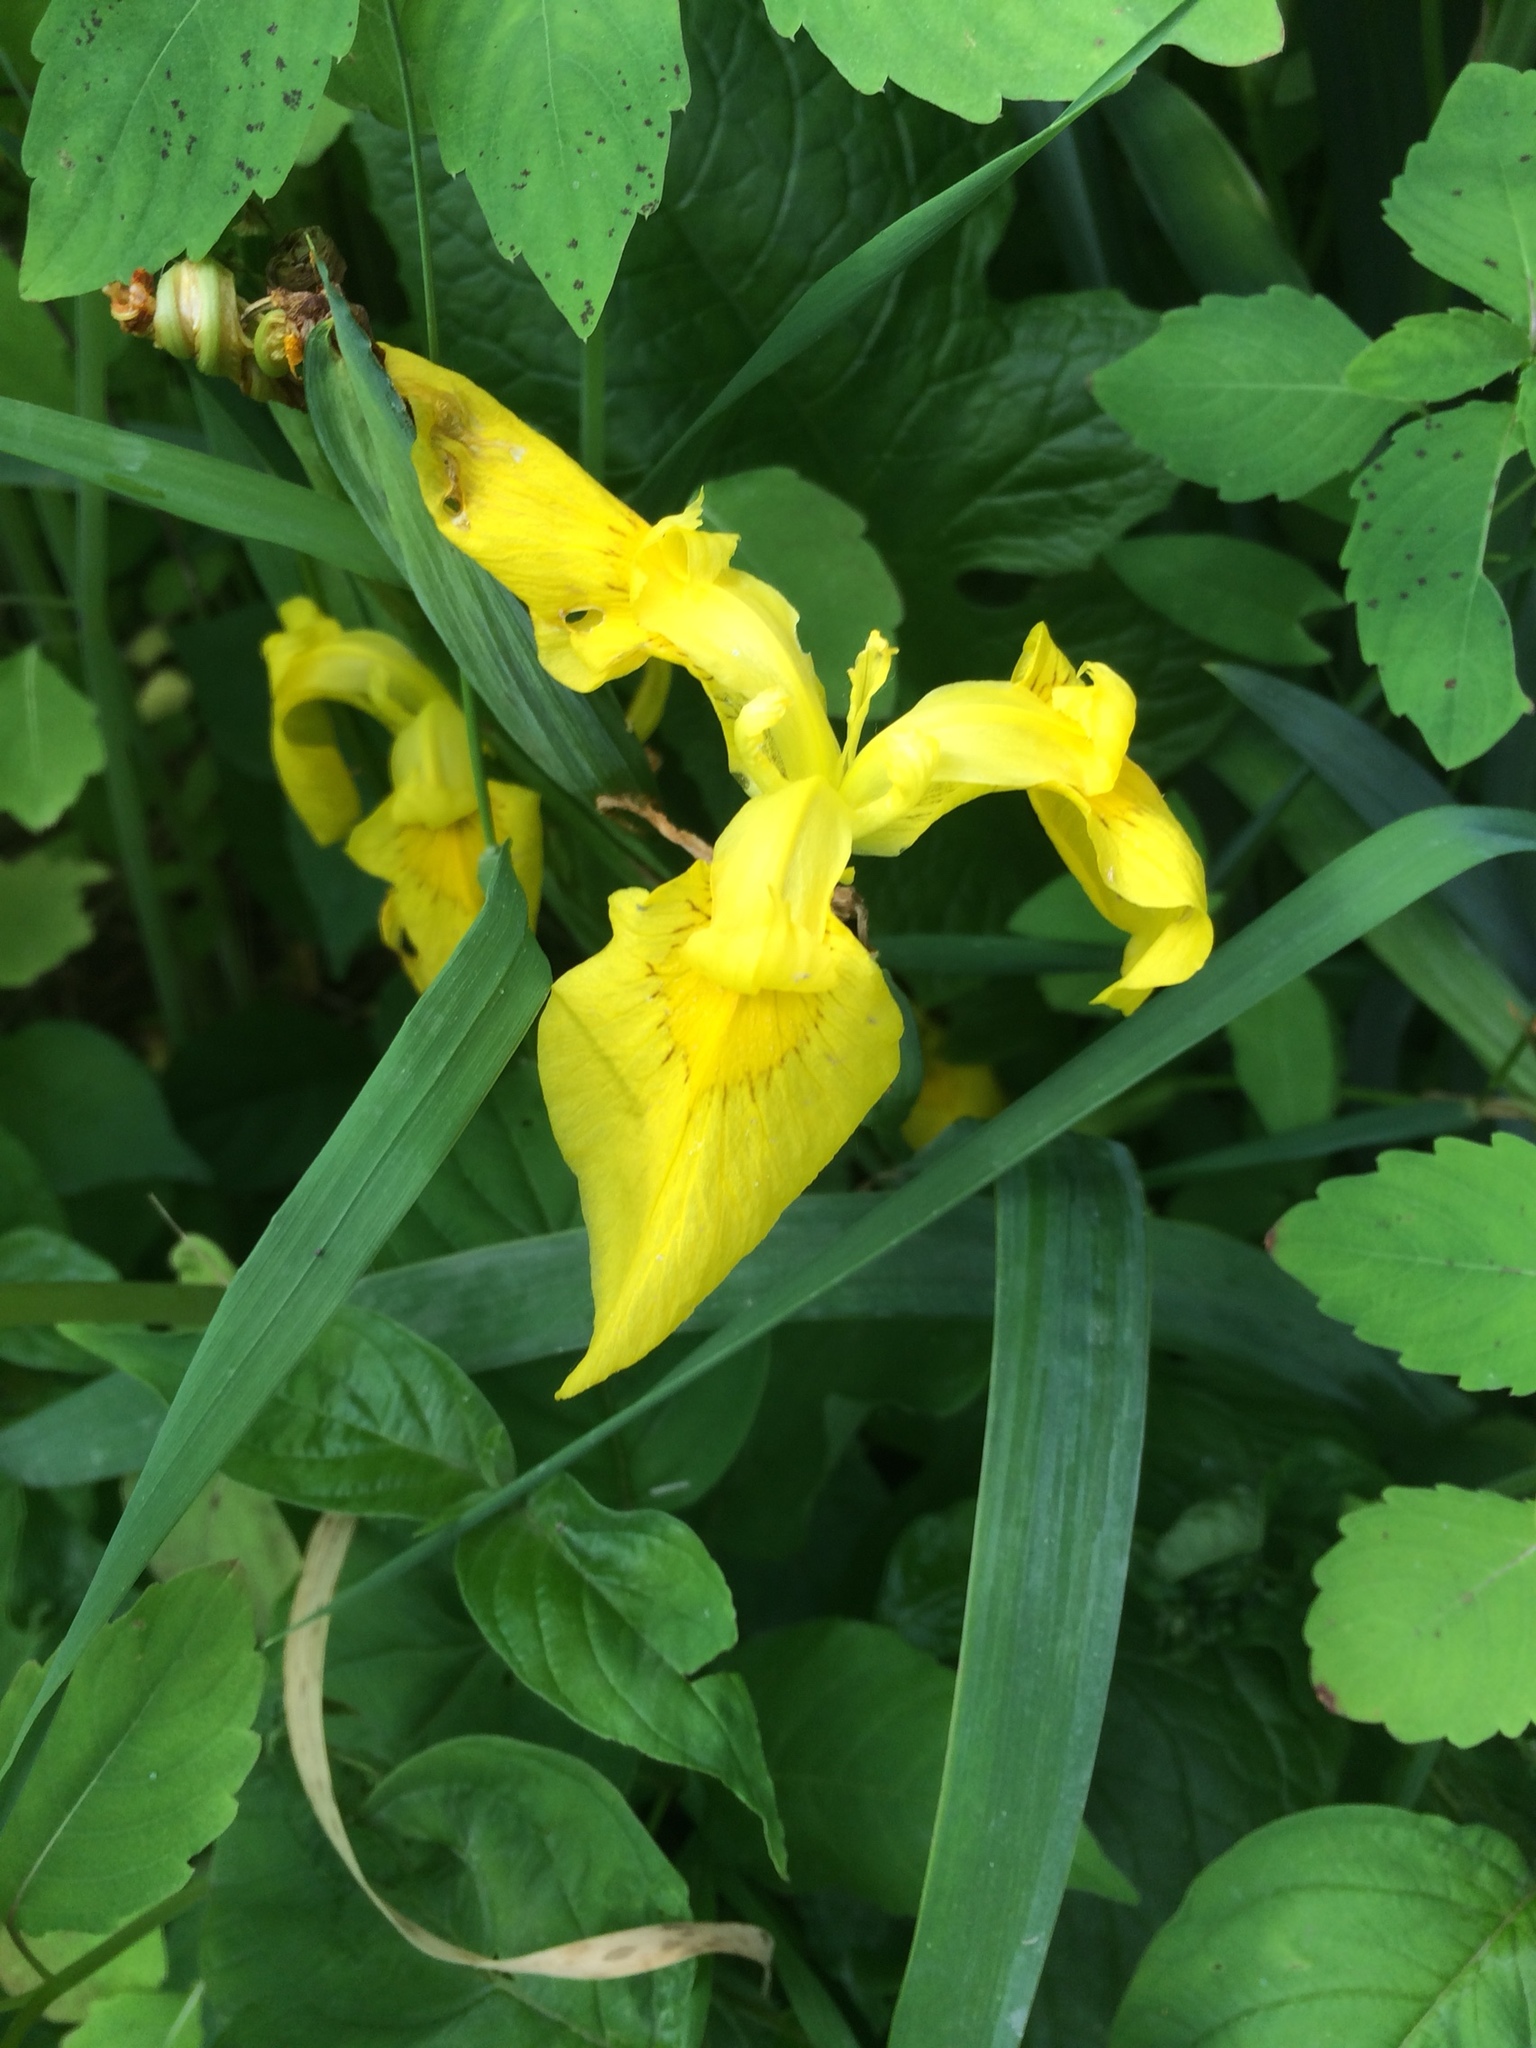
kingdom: Plantae
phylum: Tracheophyta
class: Liliopsida
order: Asparagales
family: Iridaceae
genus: Iris
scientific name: Iris pseudacorus
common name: Yellow flag
